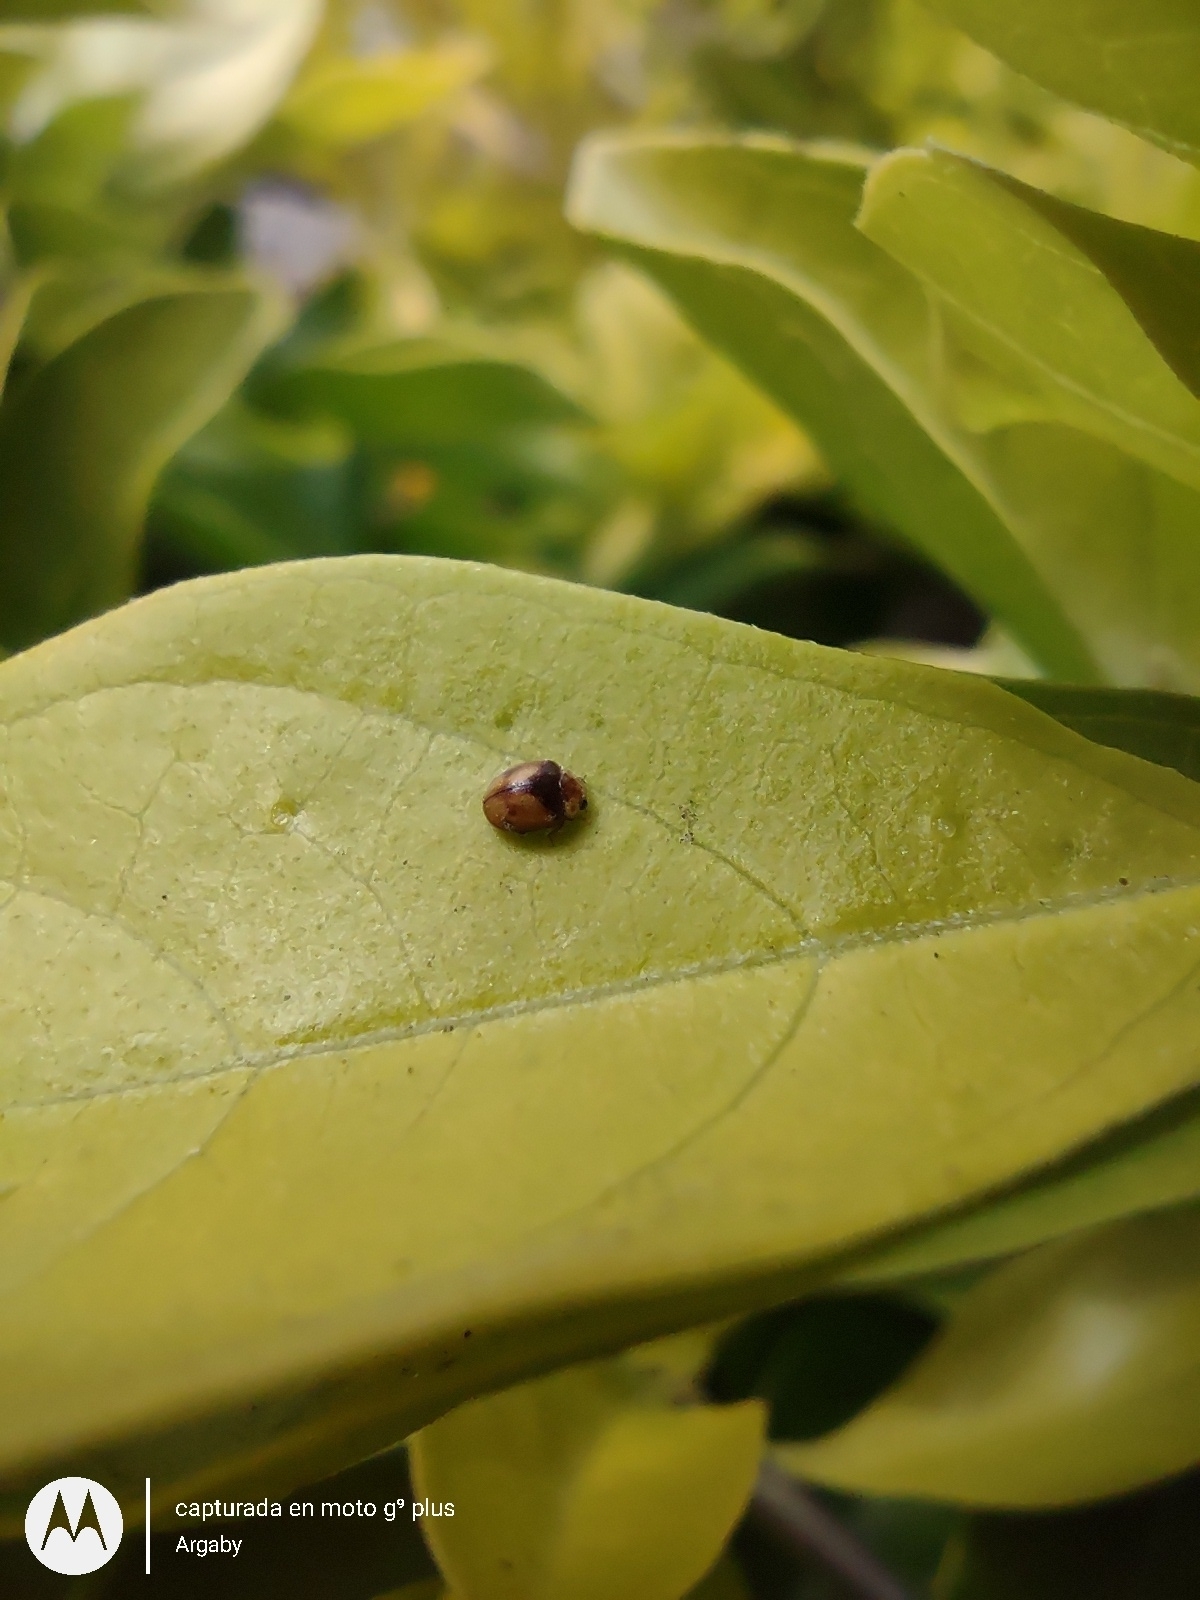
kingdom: Animalia
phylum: Arthropoda
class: Insecta
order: Coleoptera
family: Coccinellidae
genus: Diomus
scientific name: Diomus
